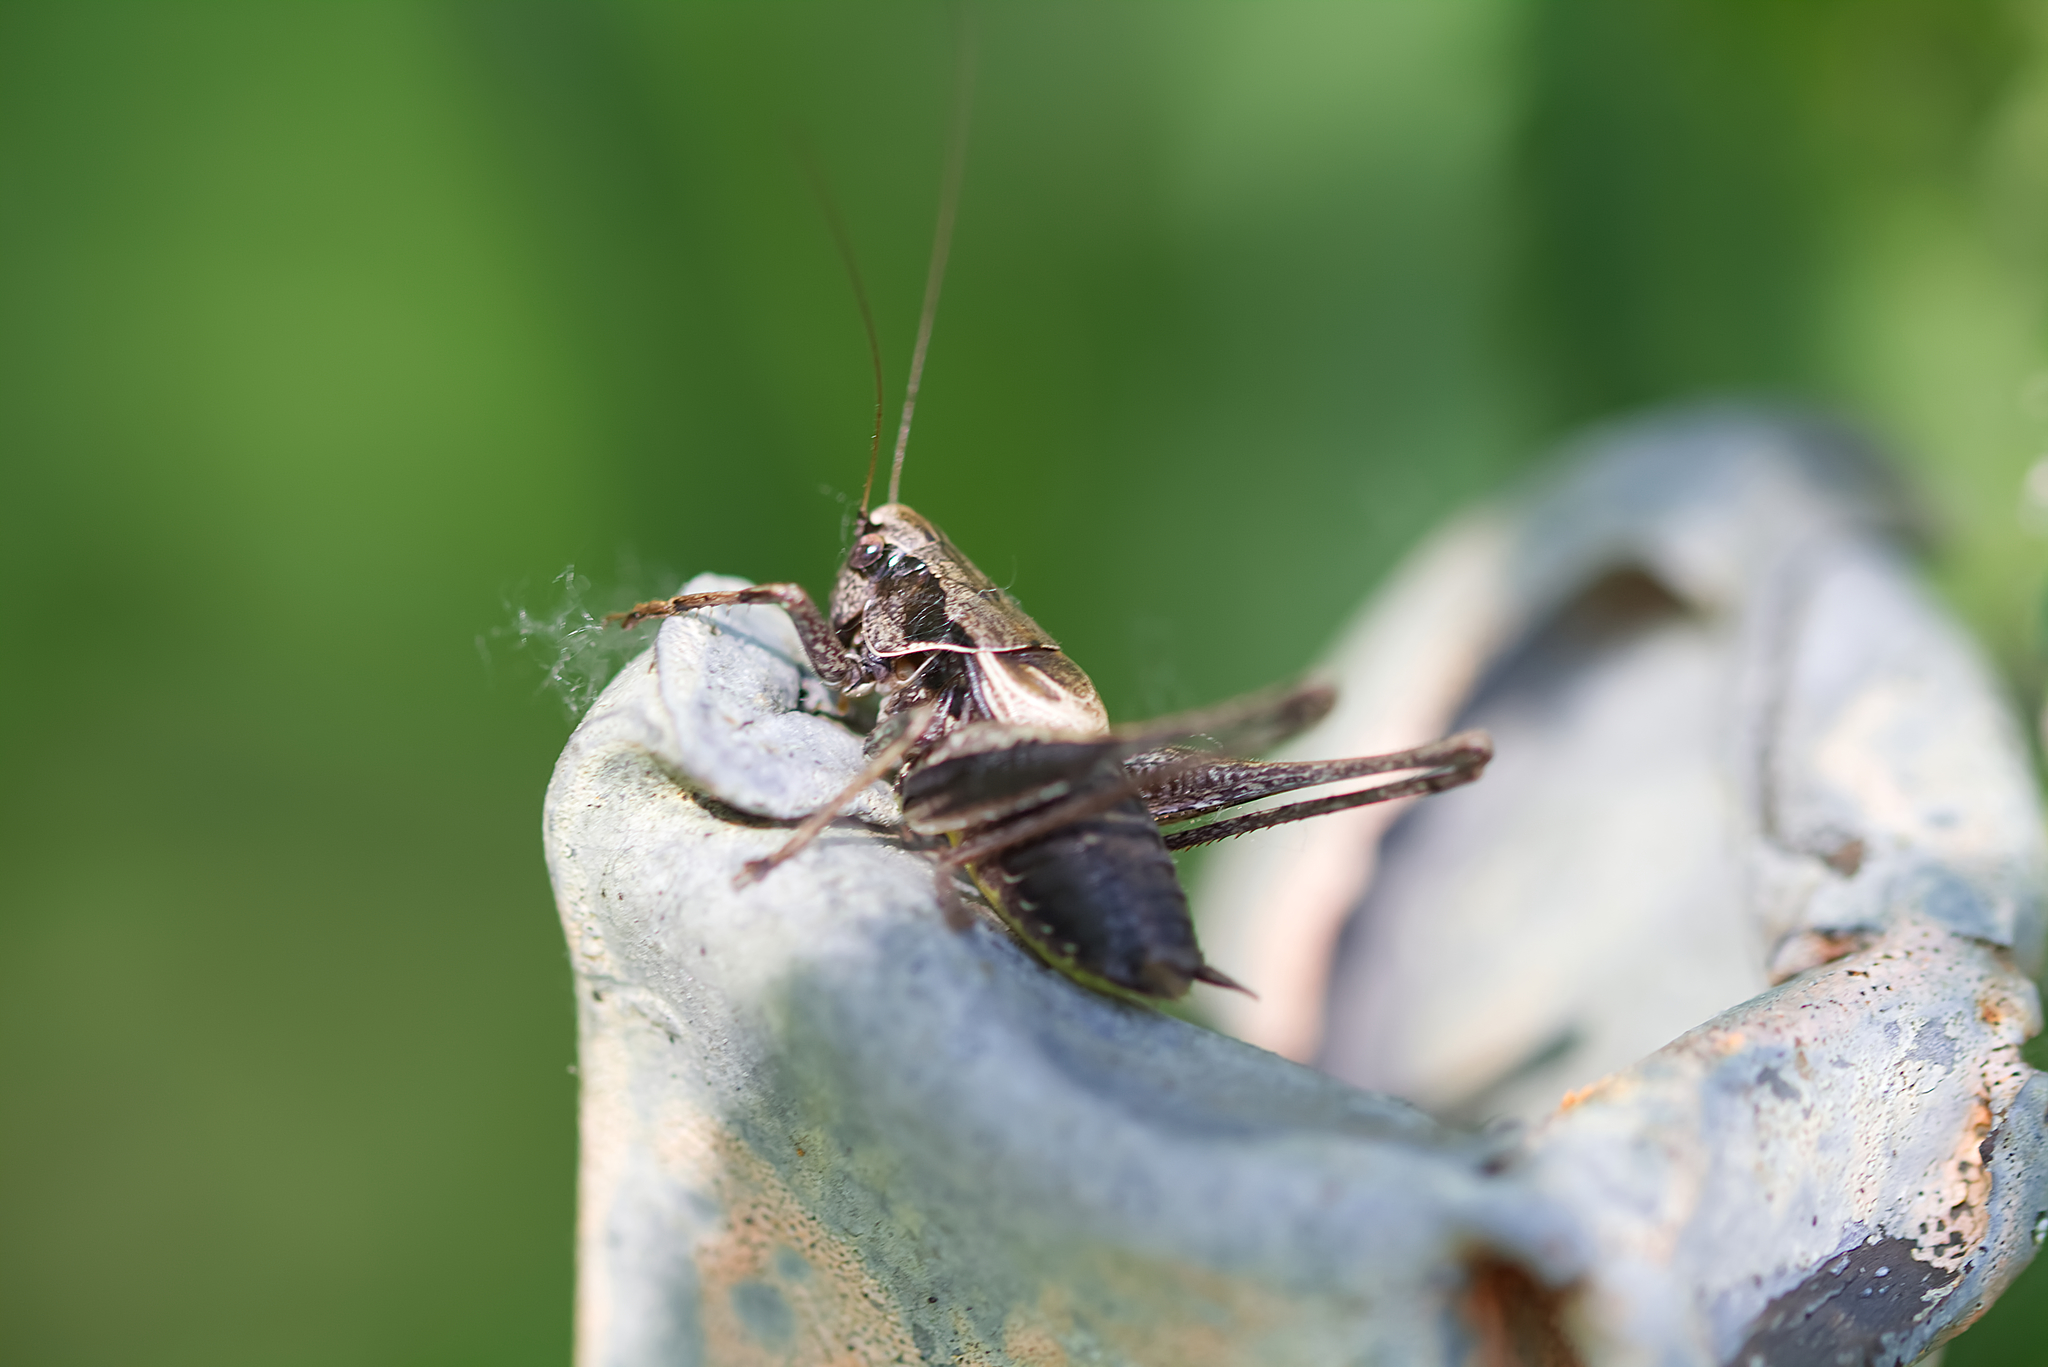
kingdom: Animalia
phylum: Arthropoda
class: Insecta
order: Orthoptera
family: Tettigoniidae
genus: Pholidoptera
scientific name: Pholidoptera griseoaptera
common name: Dark bush-cricket
